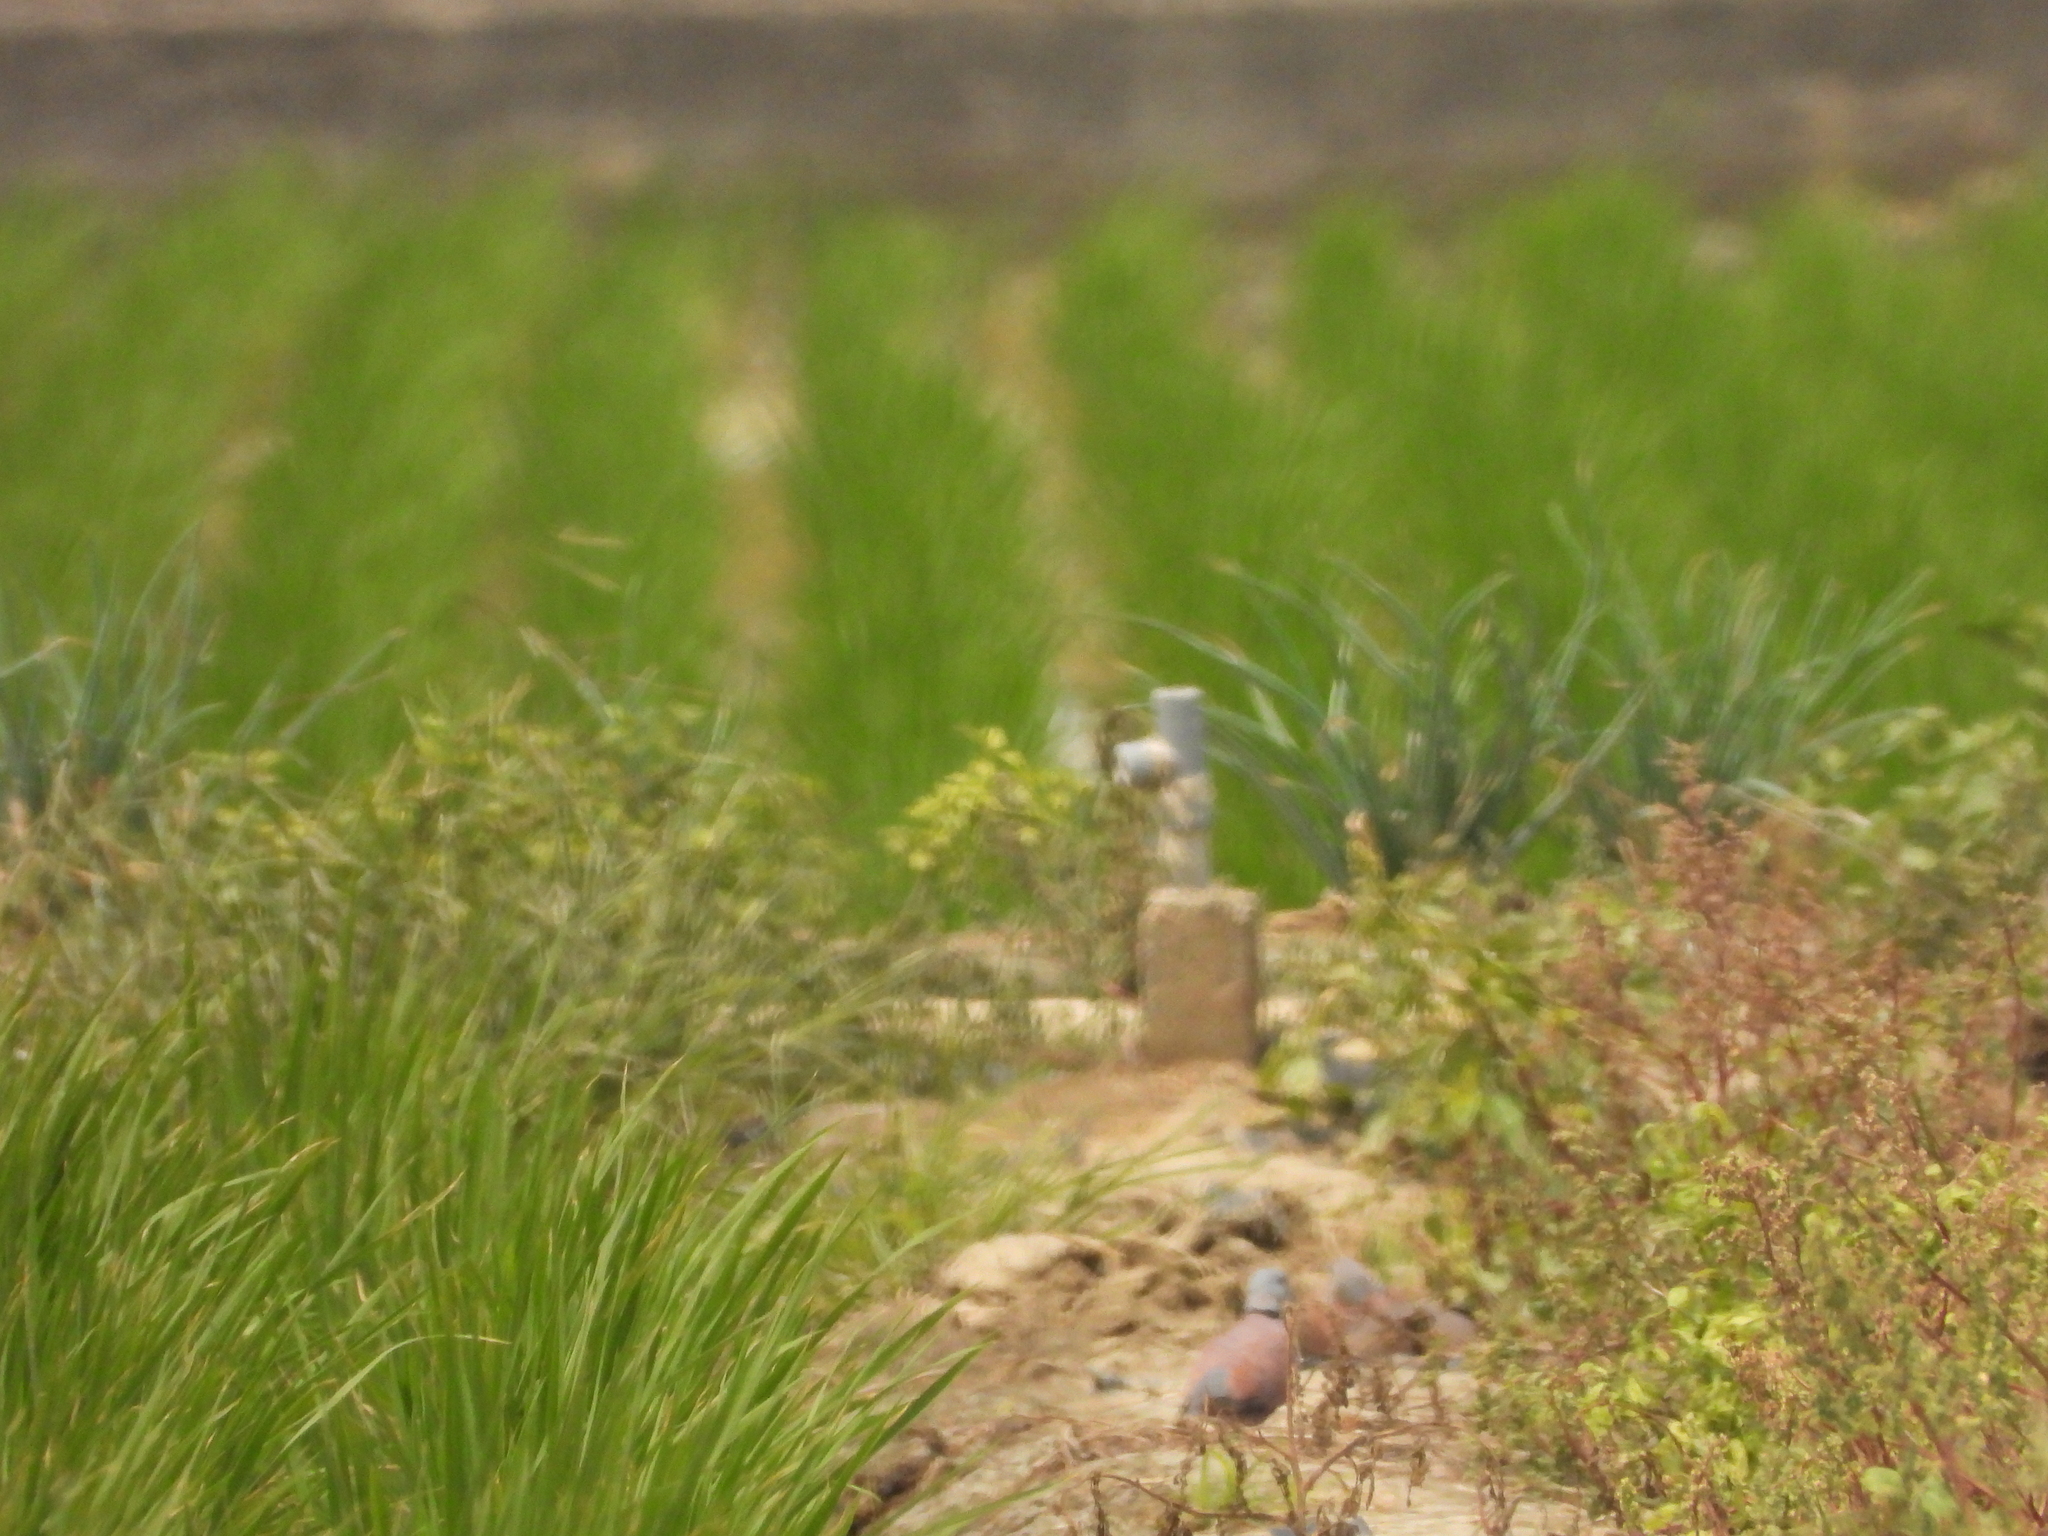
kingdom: Animalia
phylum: Chordata
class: Aves
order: Columbiformes
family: Columbidae
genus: Streptopelia
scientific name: Streptopelia tranquebarica
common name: Red turtle dove
